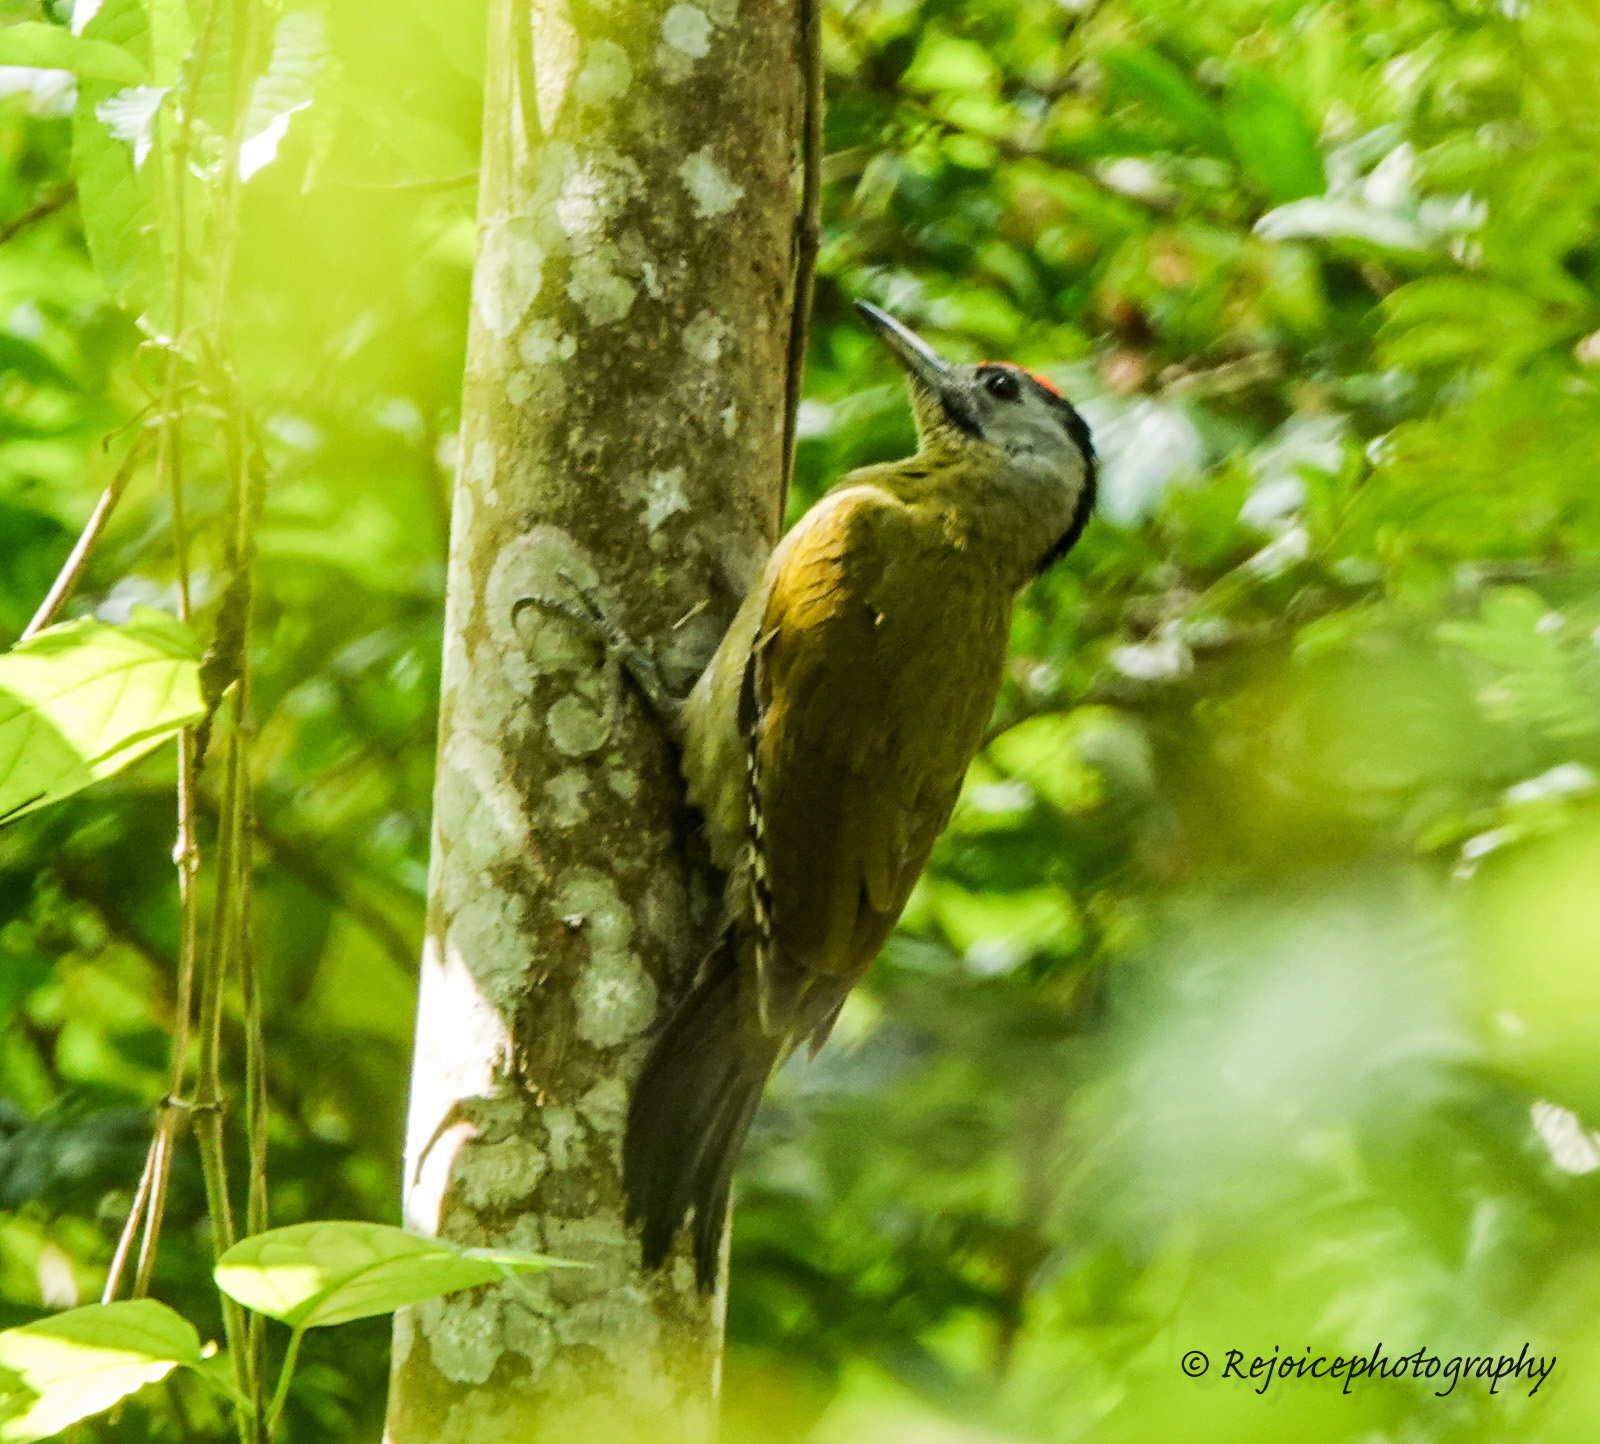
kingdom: Animalia
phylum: Chordata
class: Aves
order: Piciformes
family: Picidae
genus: Picus
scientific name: Picus canus
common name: Grey-headed woodpecker
